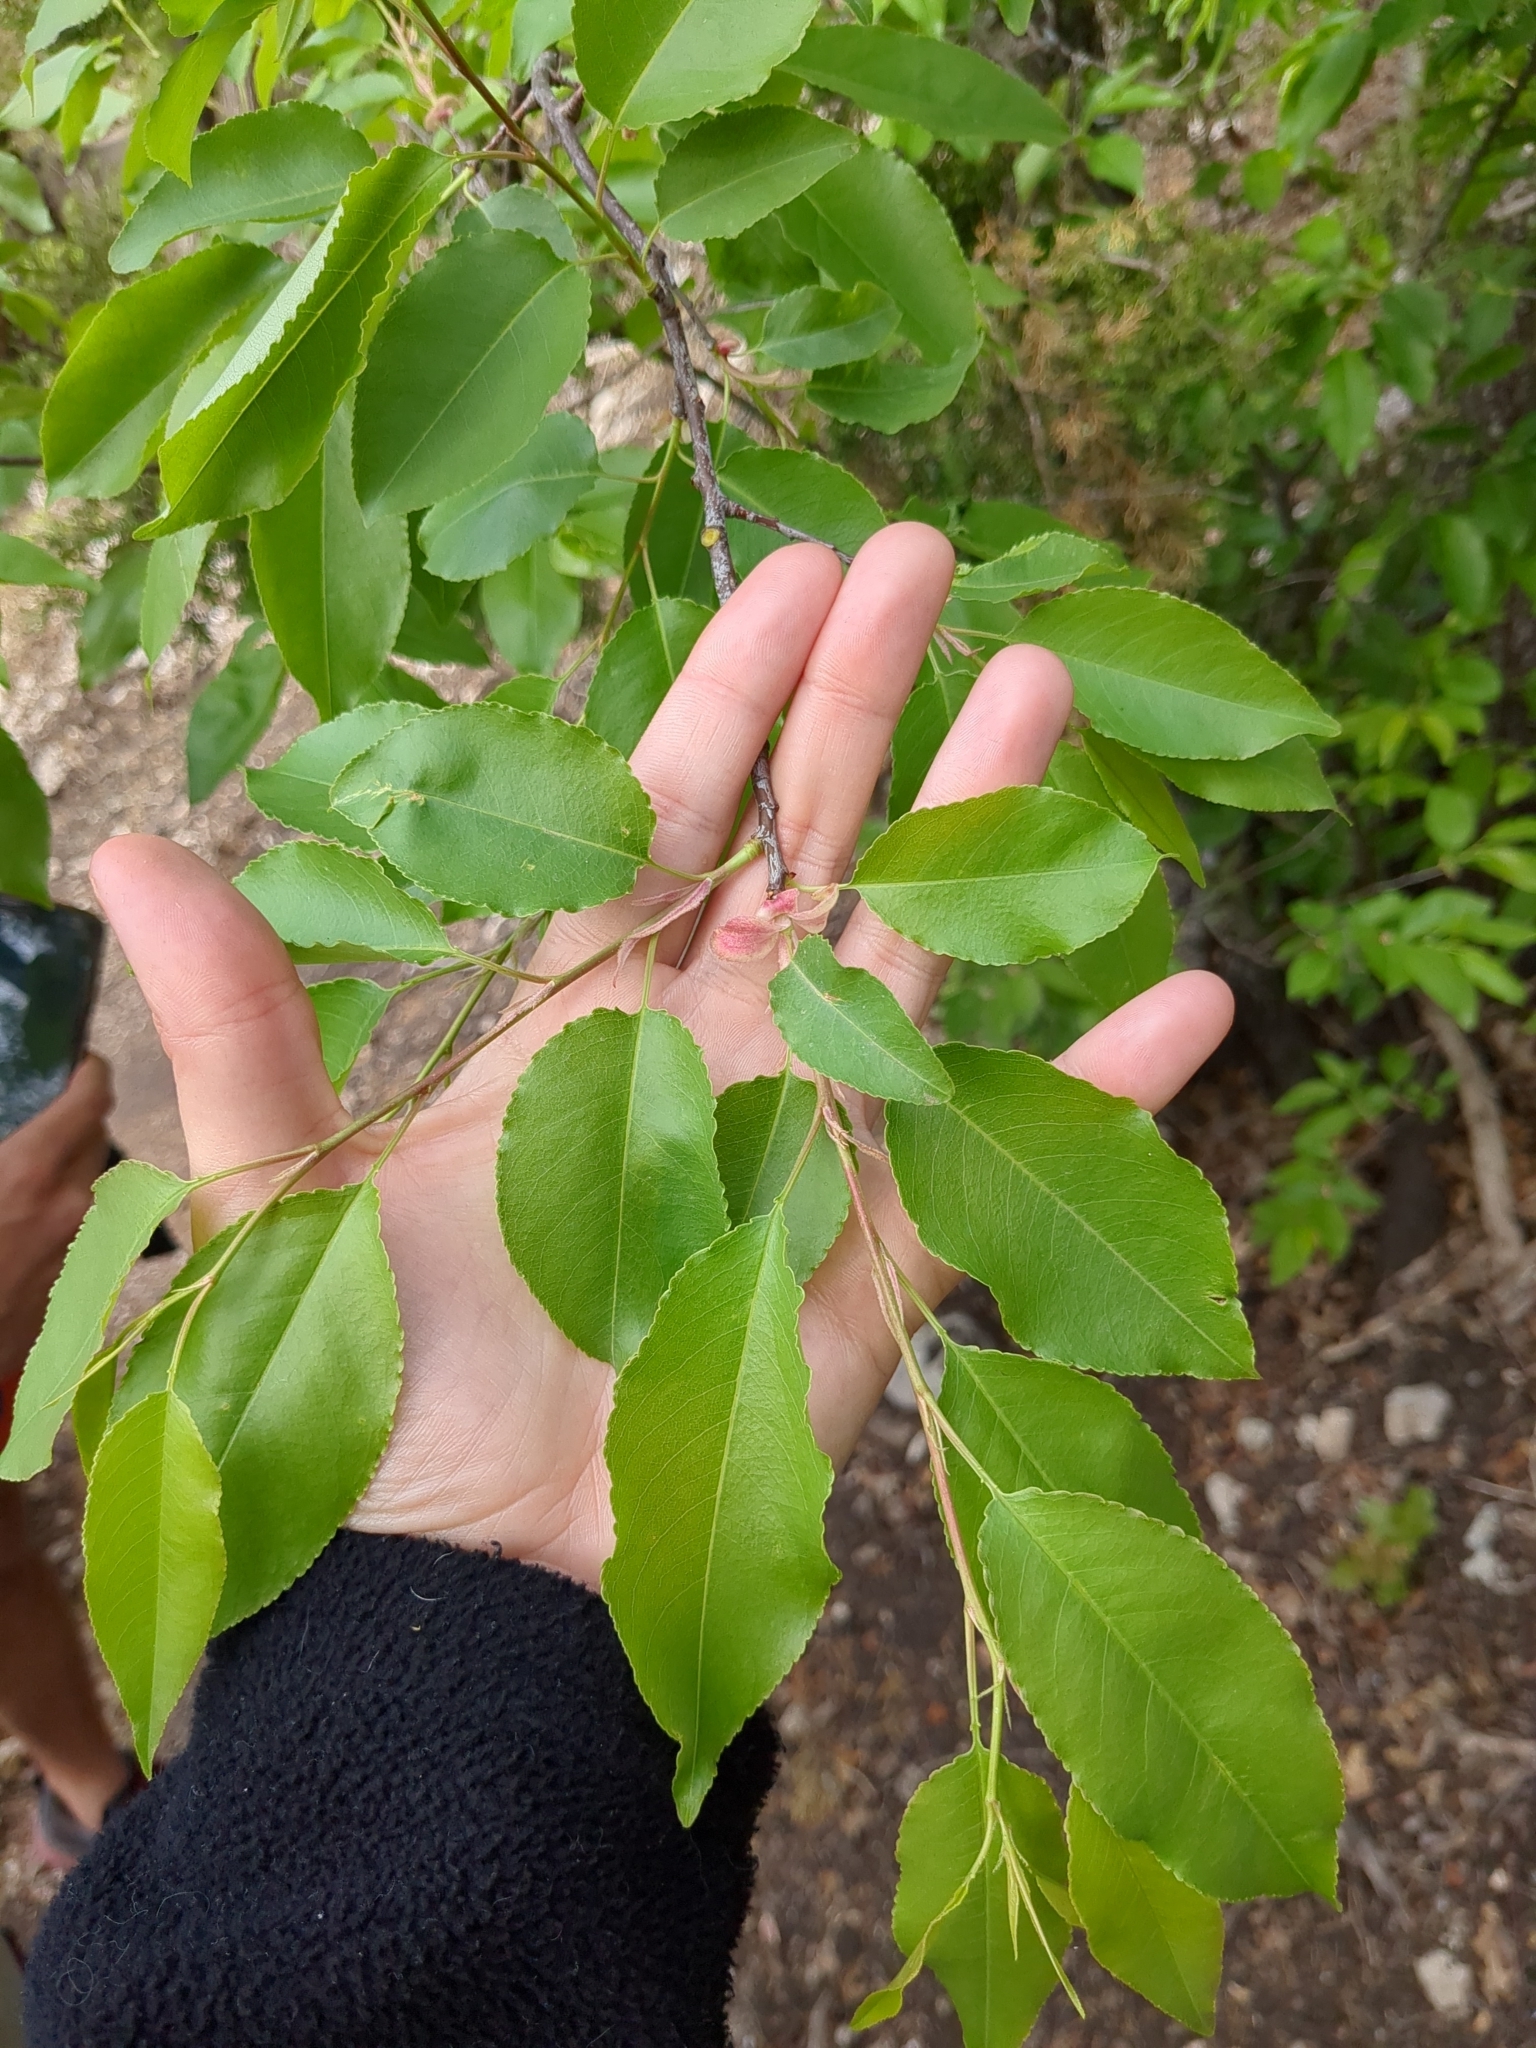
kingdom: Plantae
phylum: Tracheophyta
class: Magnoliopsida
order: Rosales
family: Rosaceae
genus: Prunus
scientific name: Prunus serotina
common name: Black cherry
